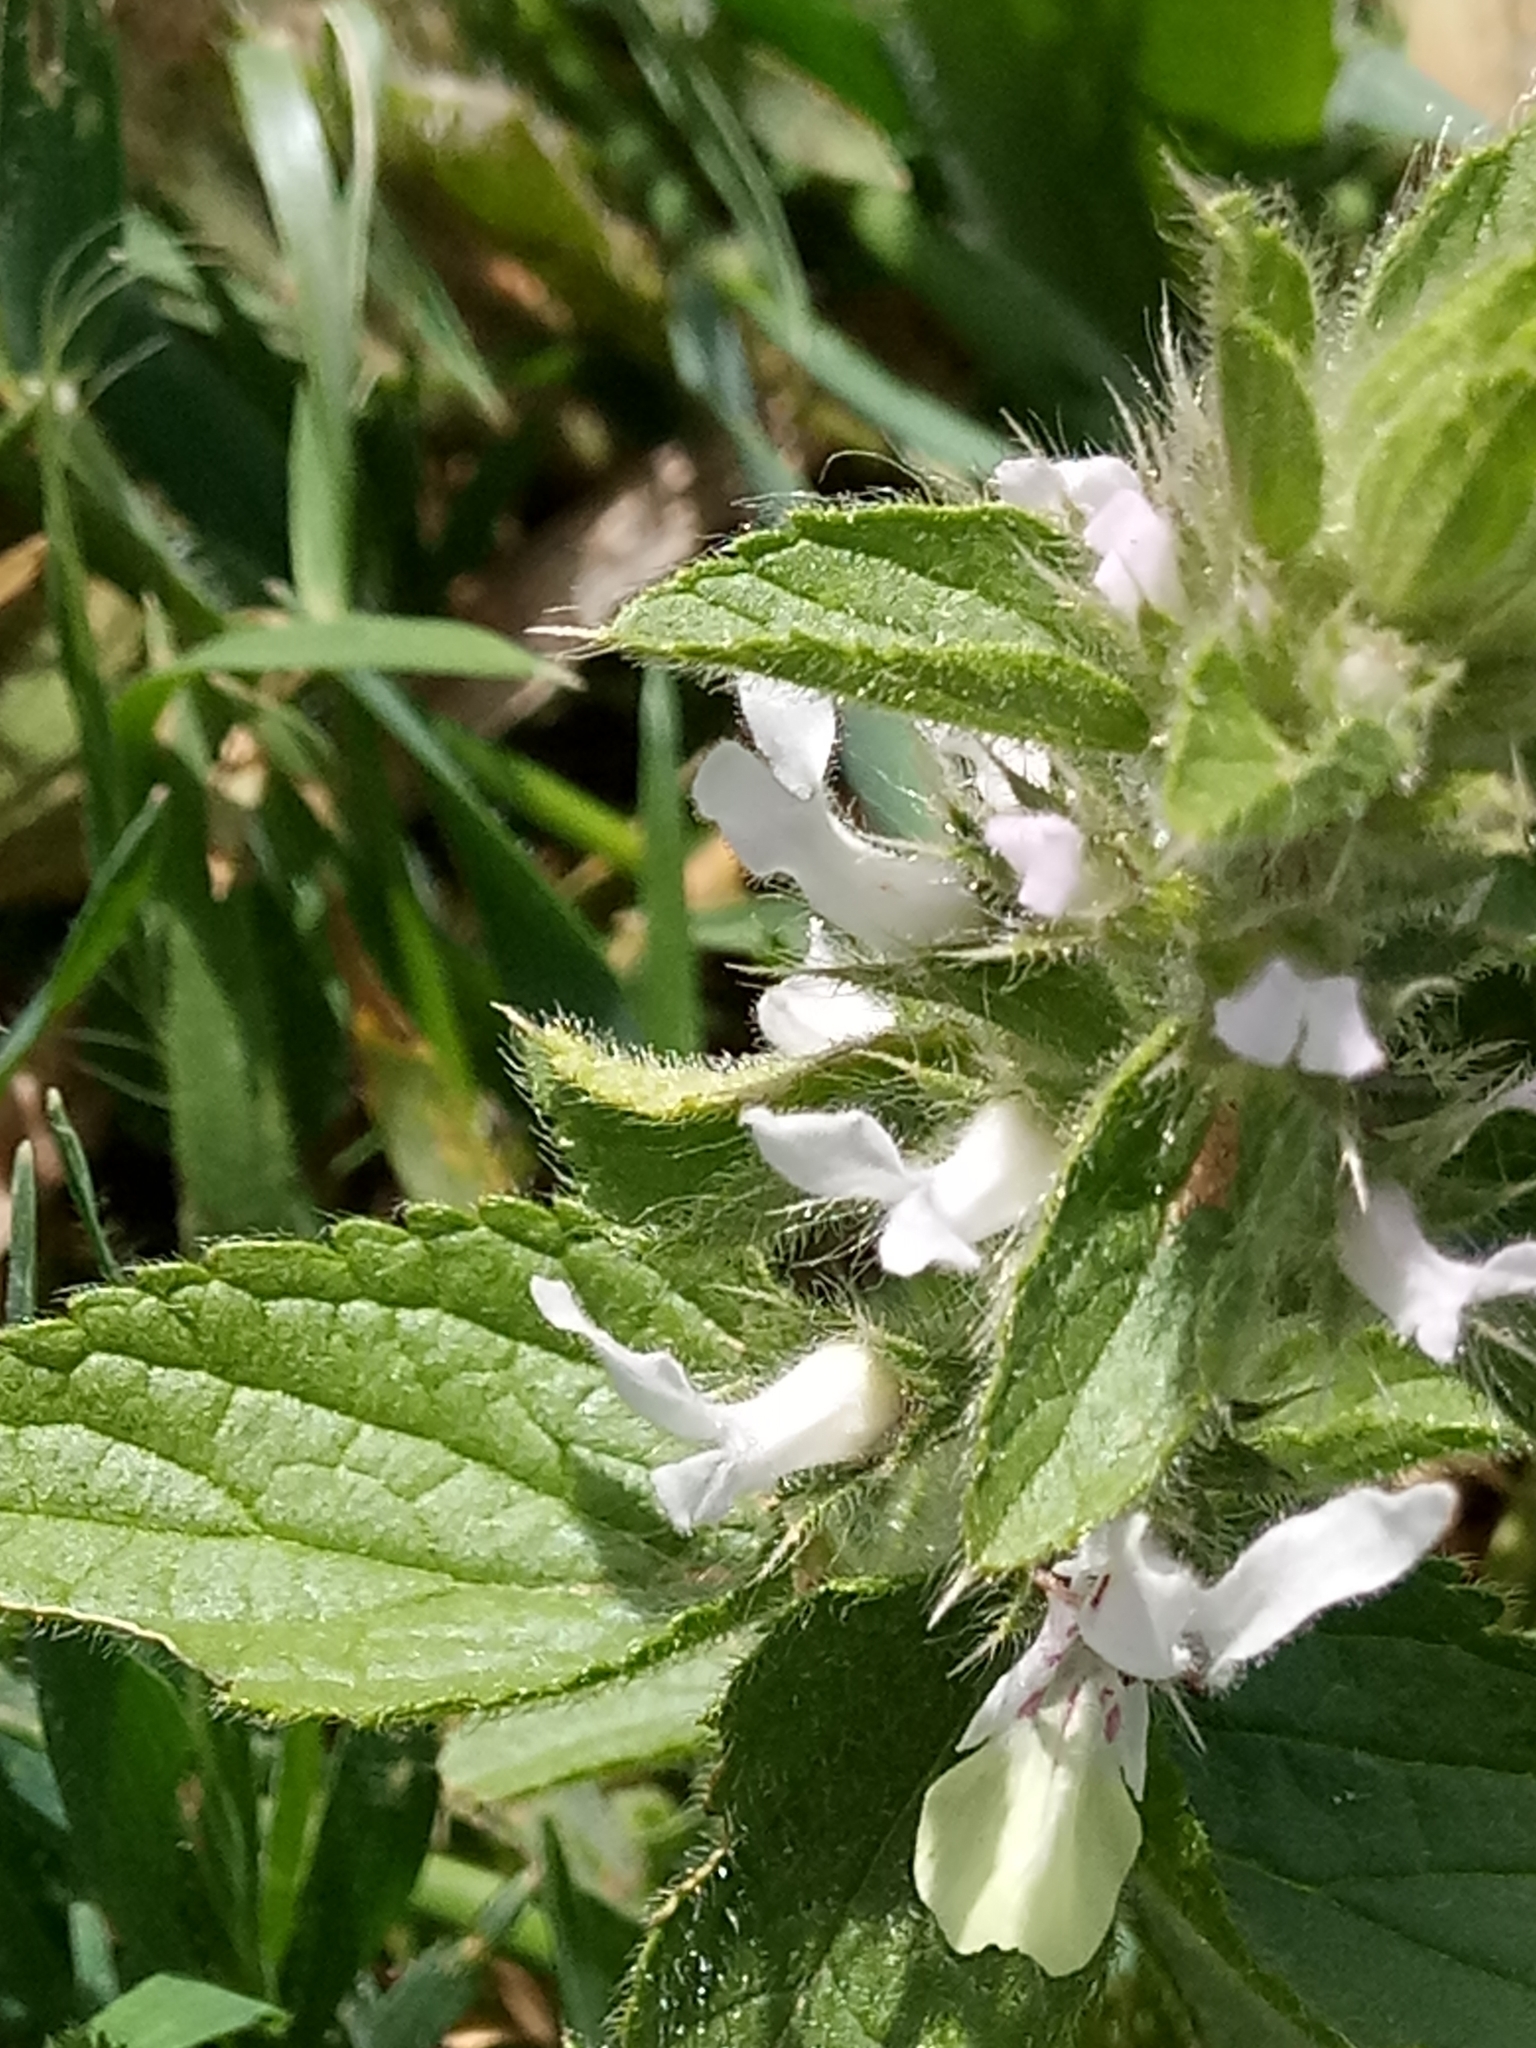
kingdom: Plantae
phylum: Tracheophyta
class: Magnoliopsida
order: Lamiales
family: Lamiaceae
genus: Stachys
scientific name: Stachys ocymastrum
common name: Italian hedgenettle
